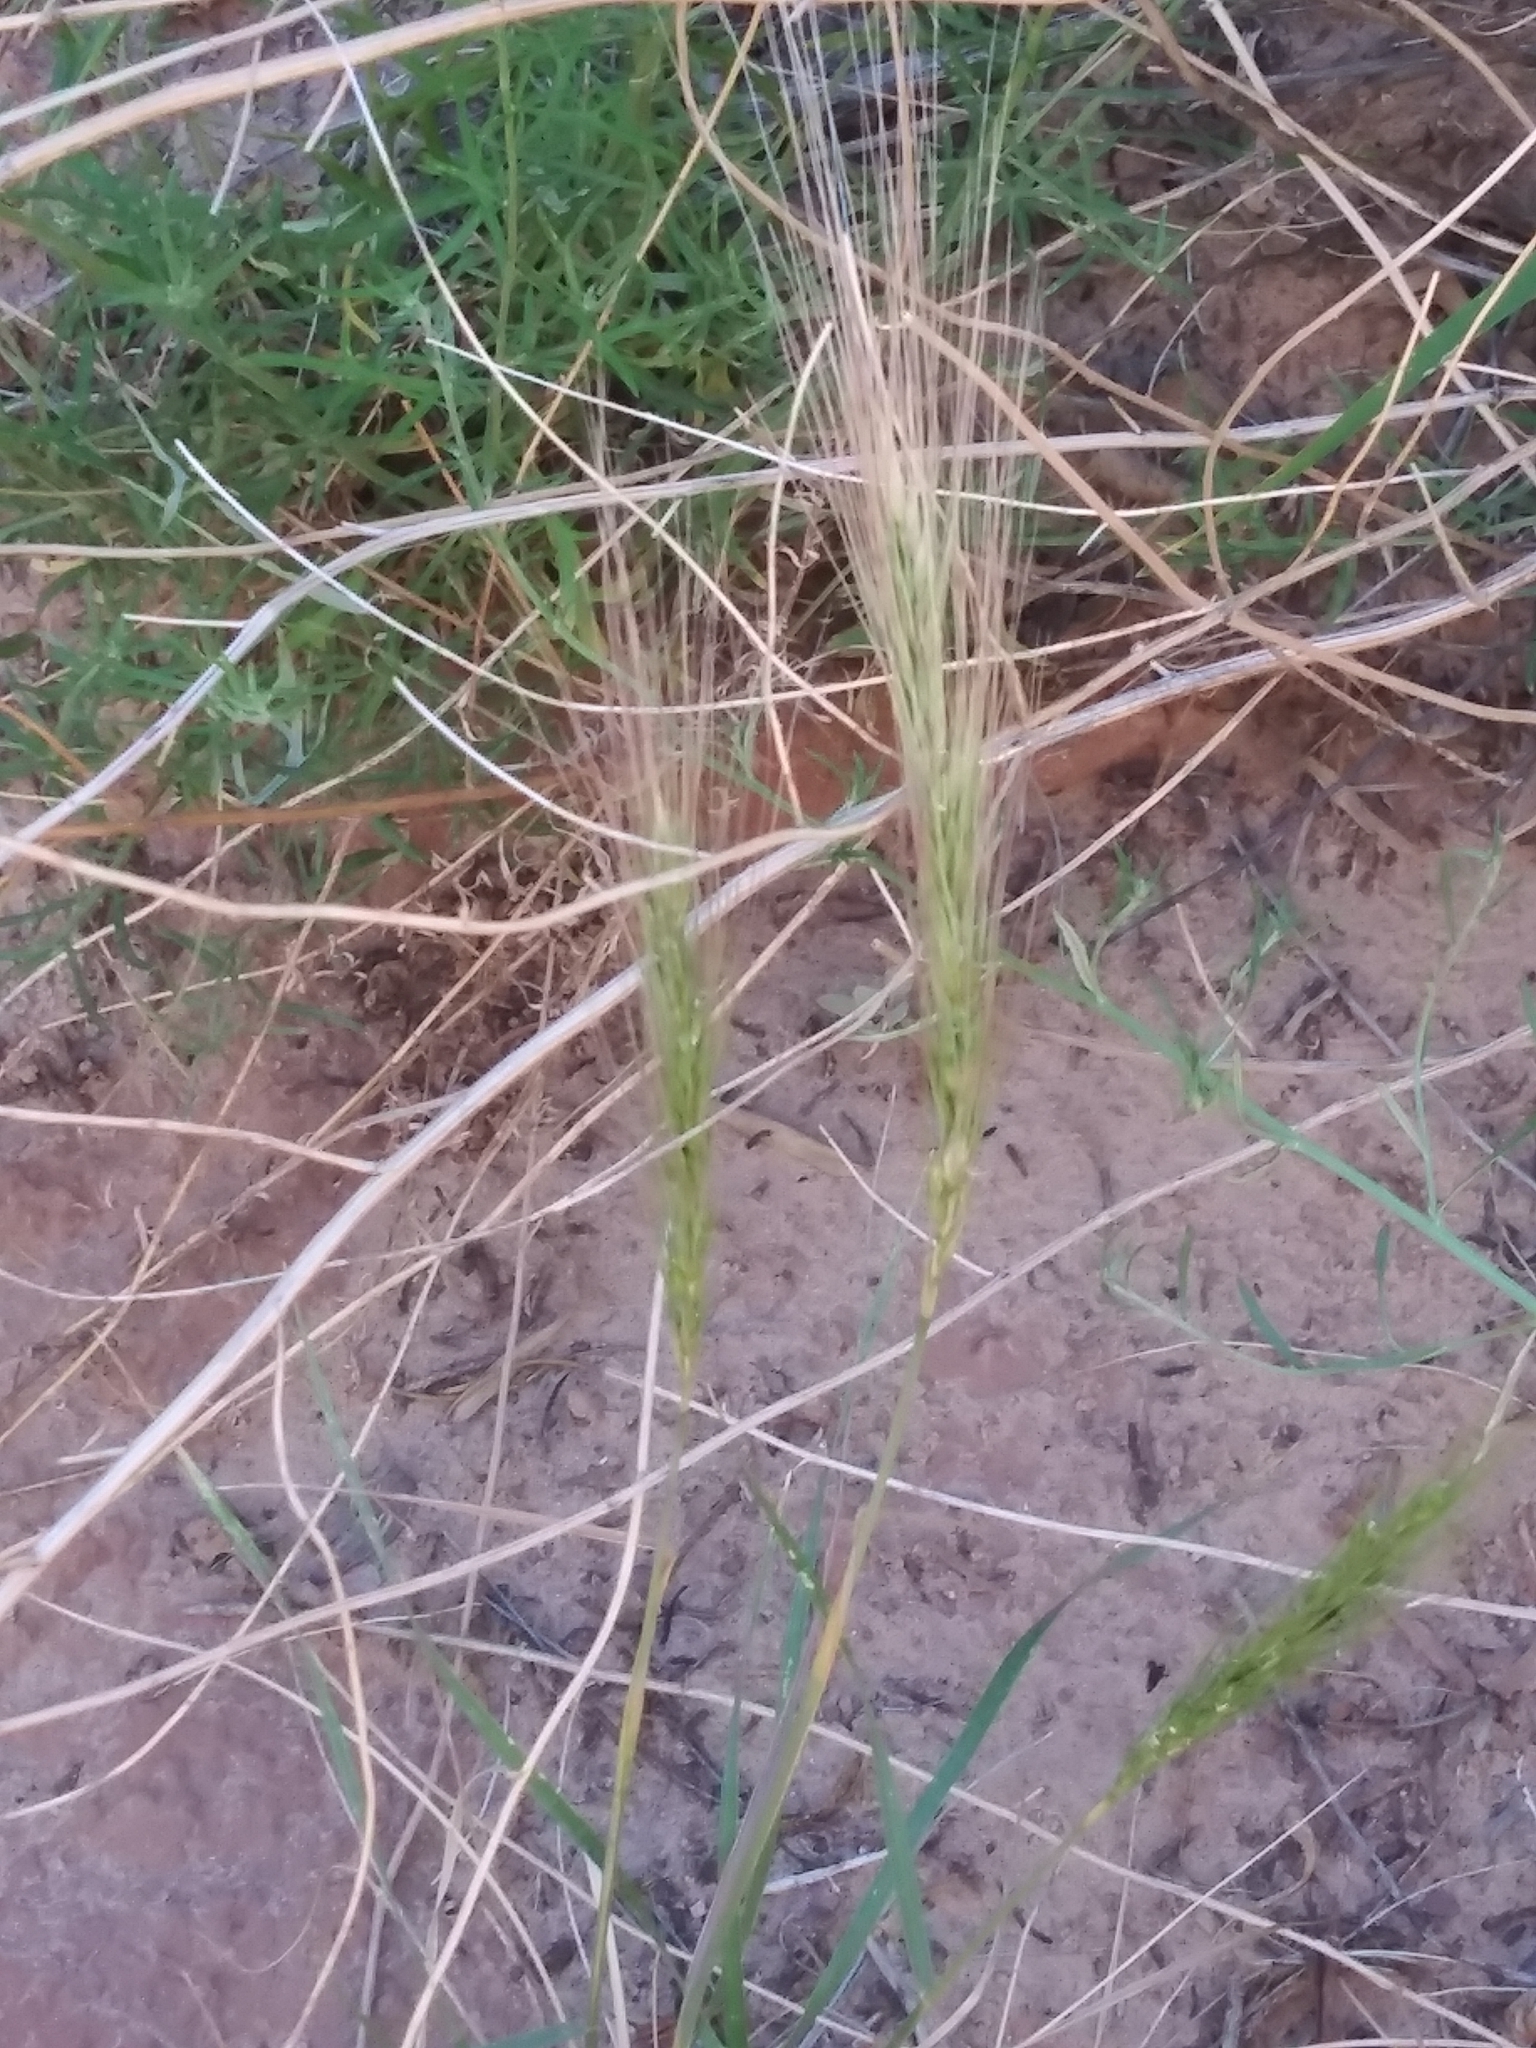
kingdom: Plantae
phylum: Tracheophyta
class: Liliopsida
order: Poales
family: Poaceae
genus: Elymus
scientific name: Elymus elymoides
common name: Bottlebrush squirreltail
